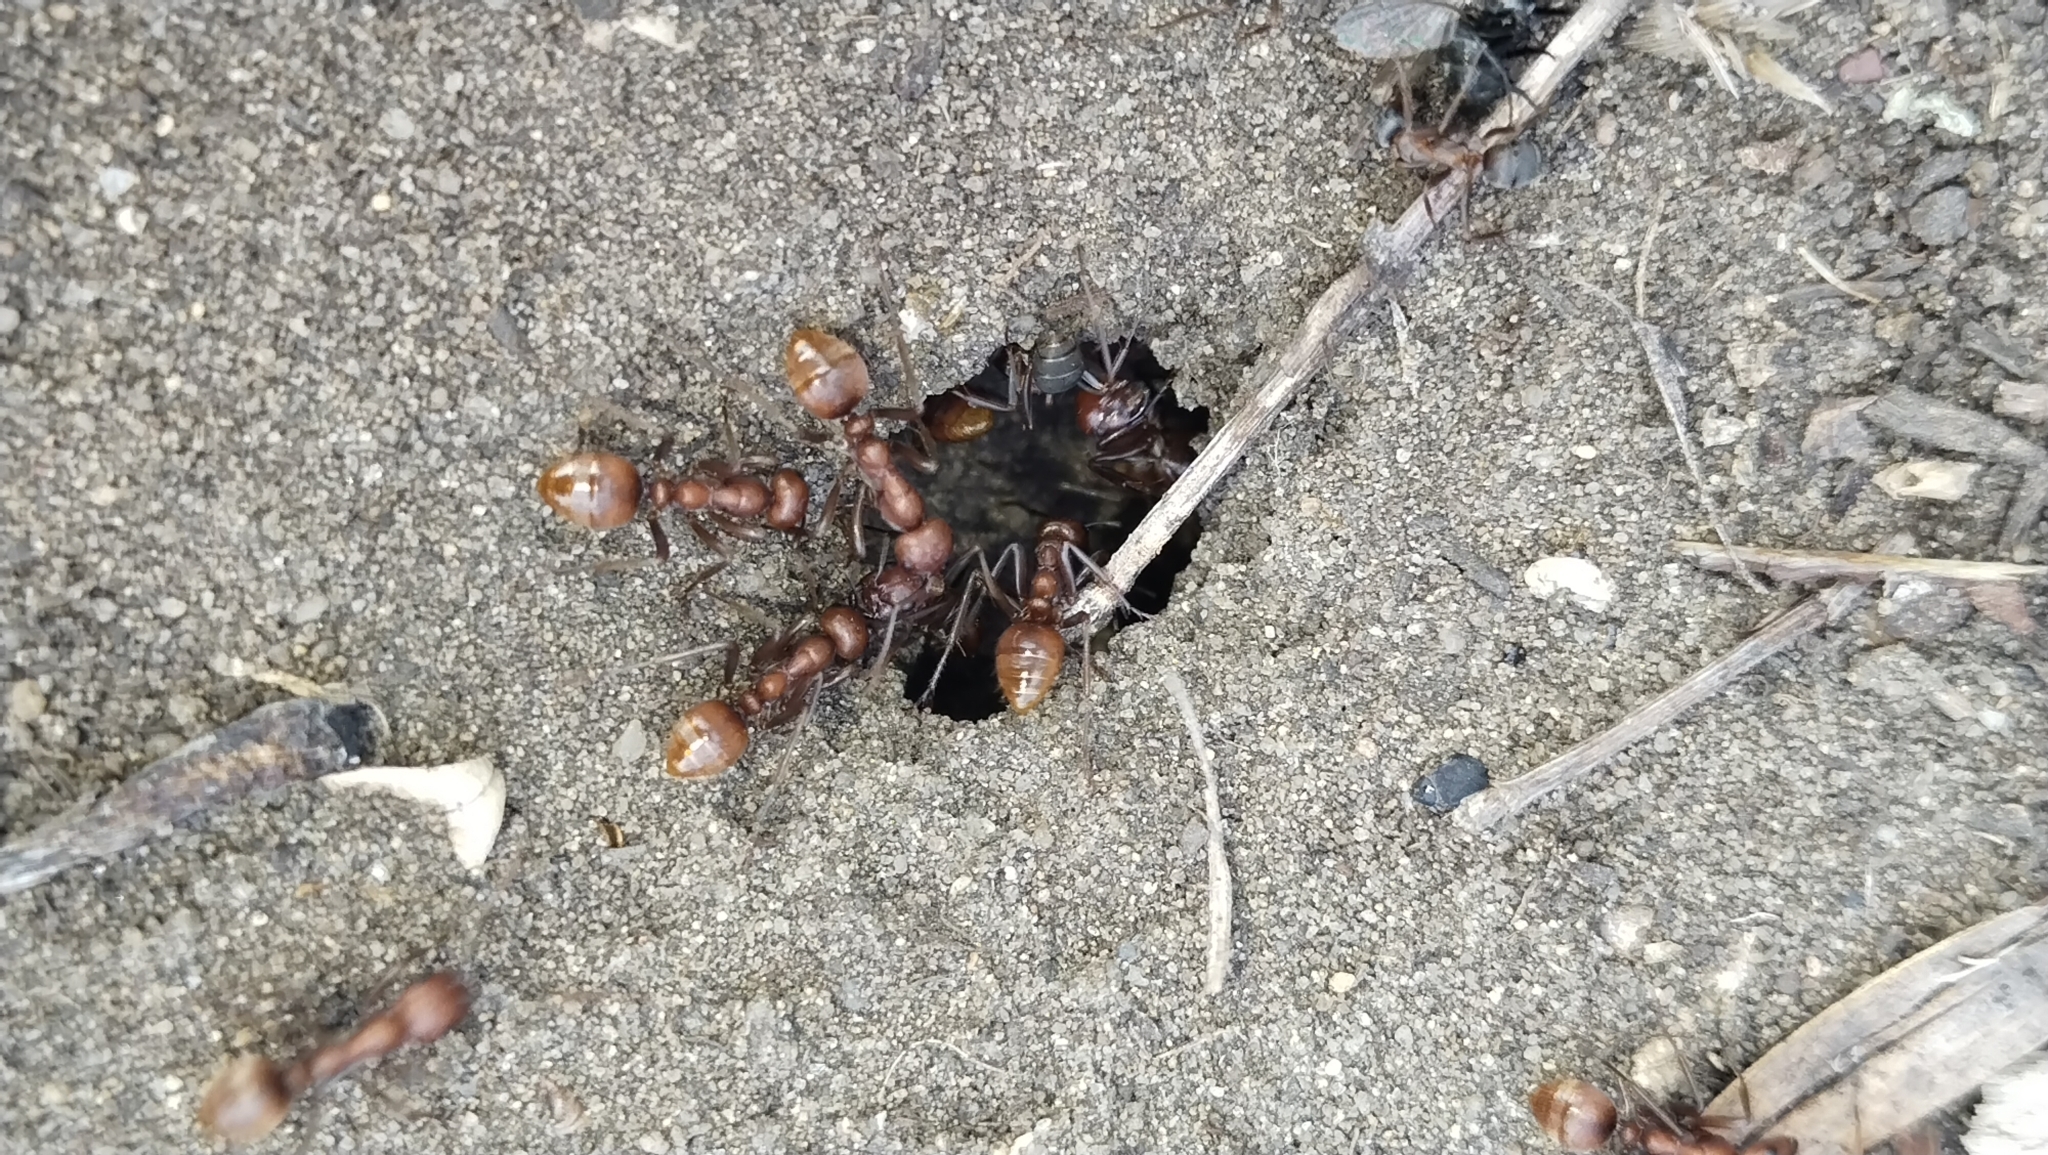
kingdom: Animalia
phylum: Arthropoda
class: Insecta
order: Hymenoptera
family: Formicidae
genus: Polyergus
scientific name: Polyergus rufescens
